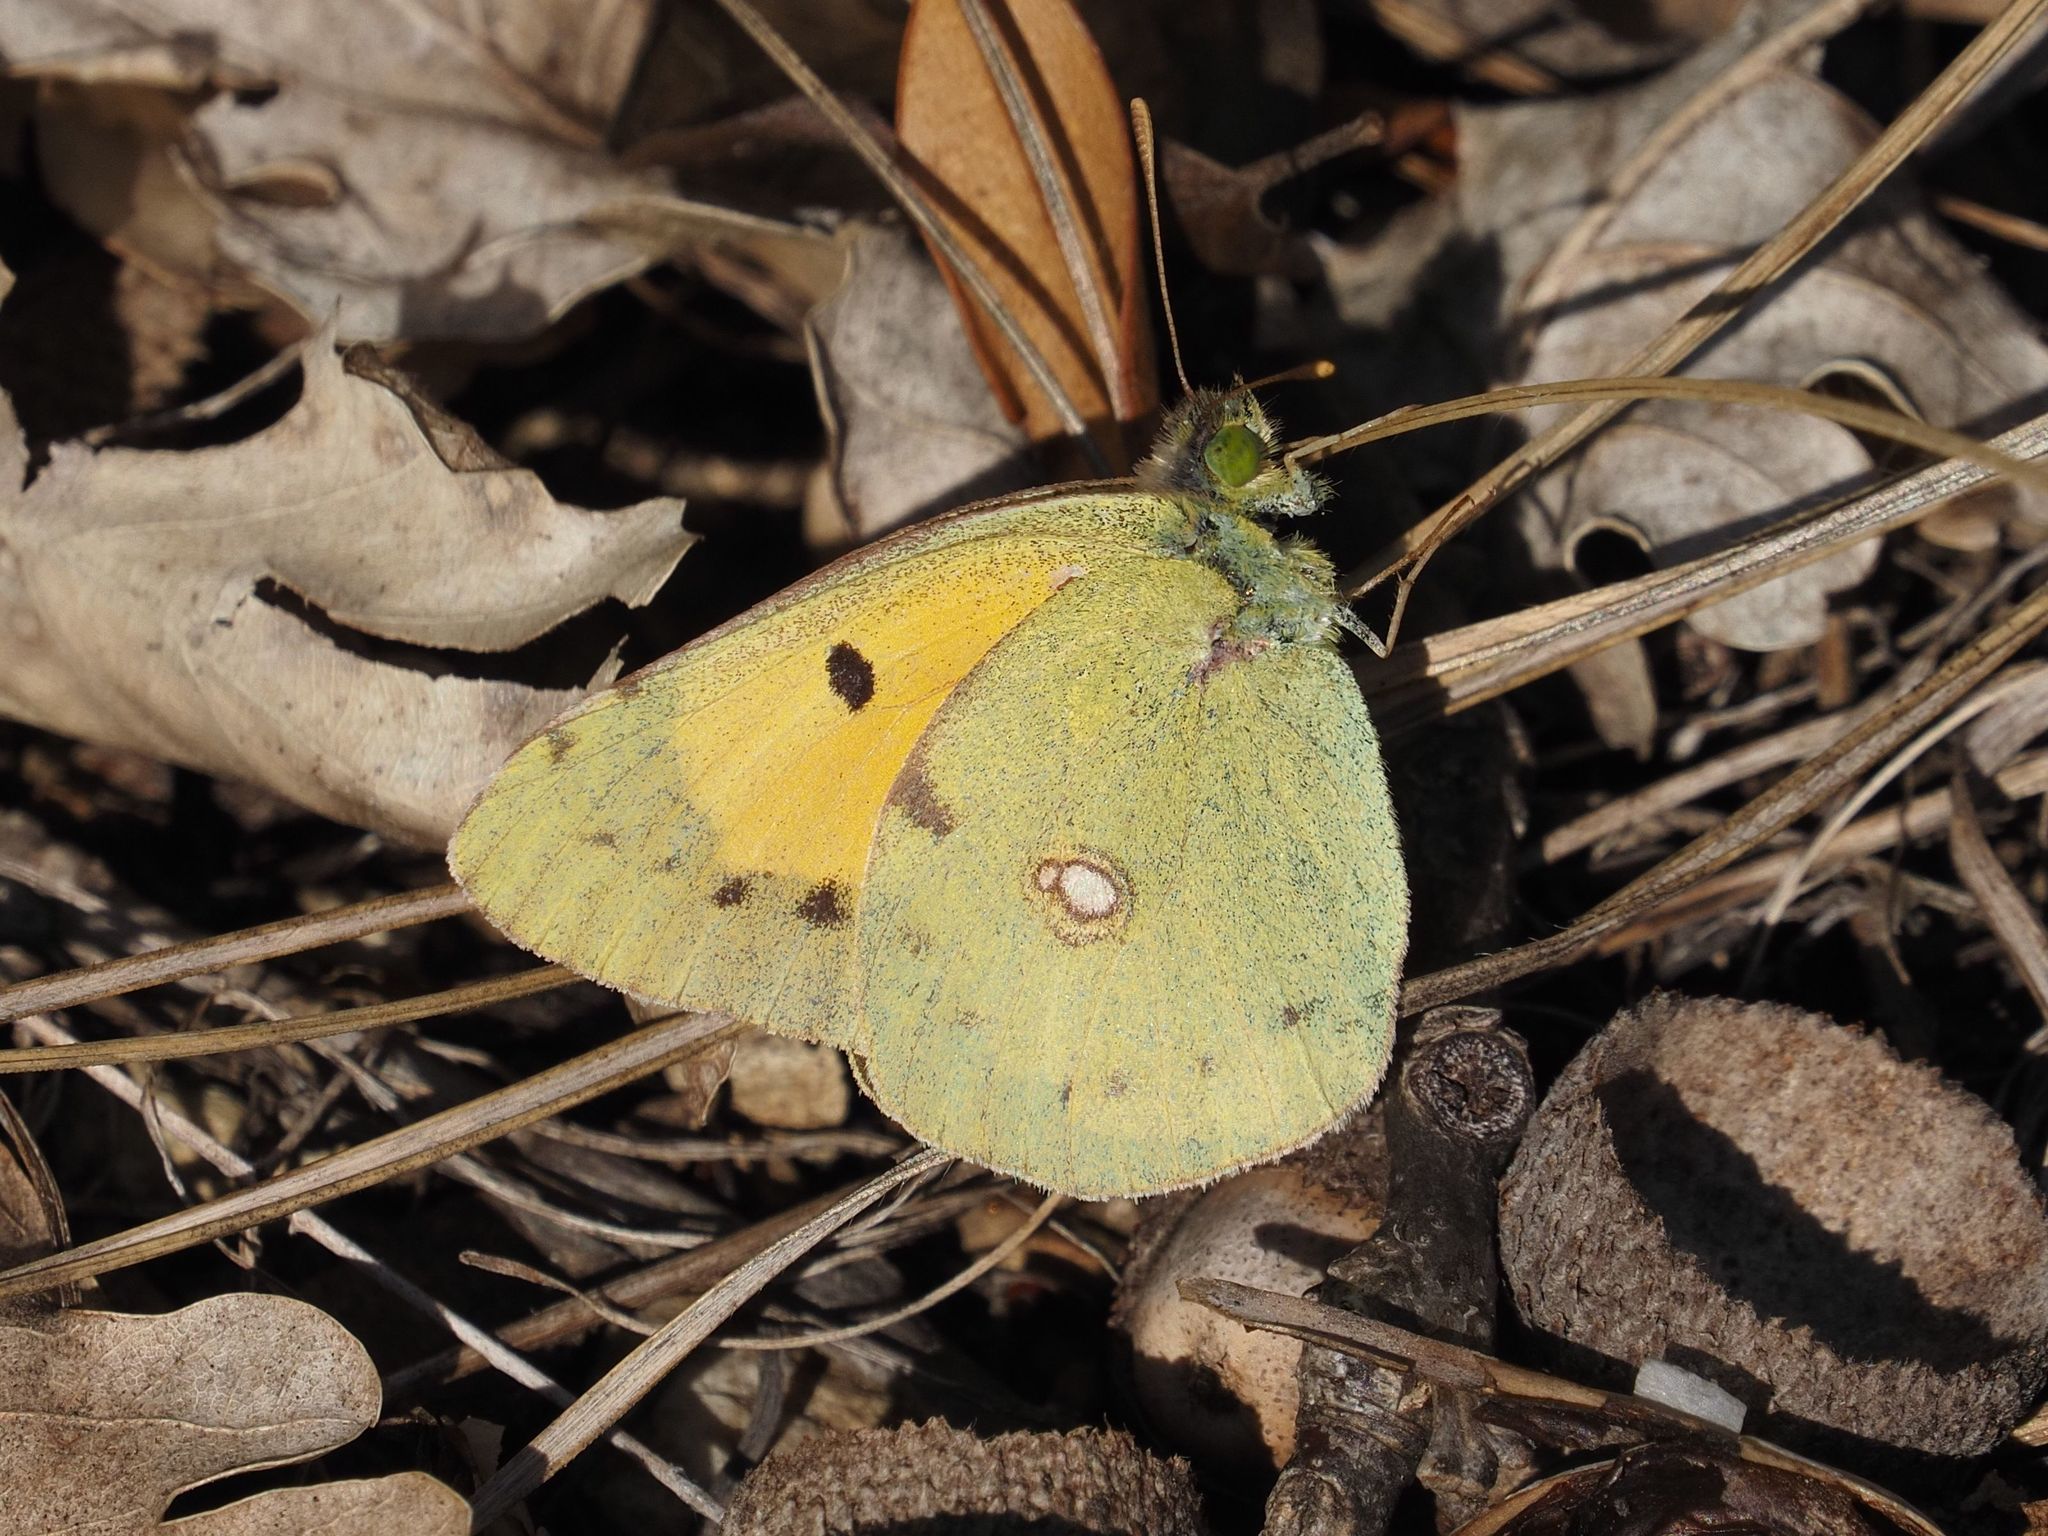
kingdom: Animalia
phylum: Arthropoda
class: Insecta
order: Lepidoptera
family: Pieridae
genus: Colias
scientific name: Colias croceus
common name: Clouded yellow
